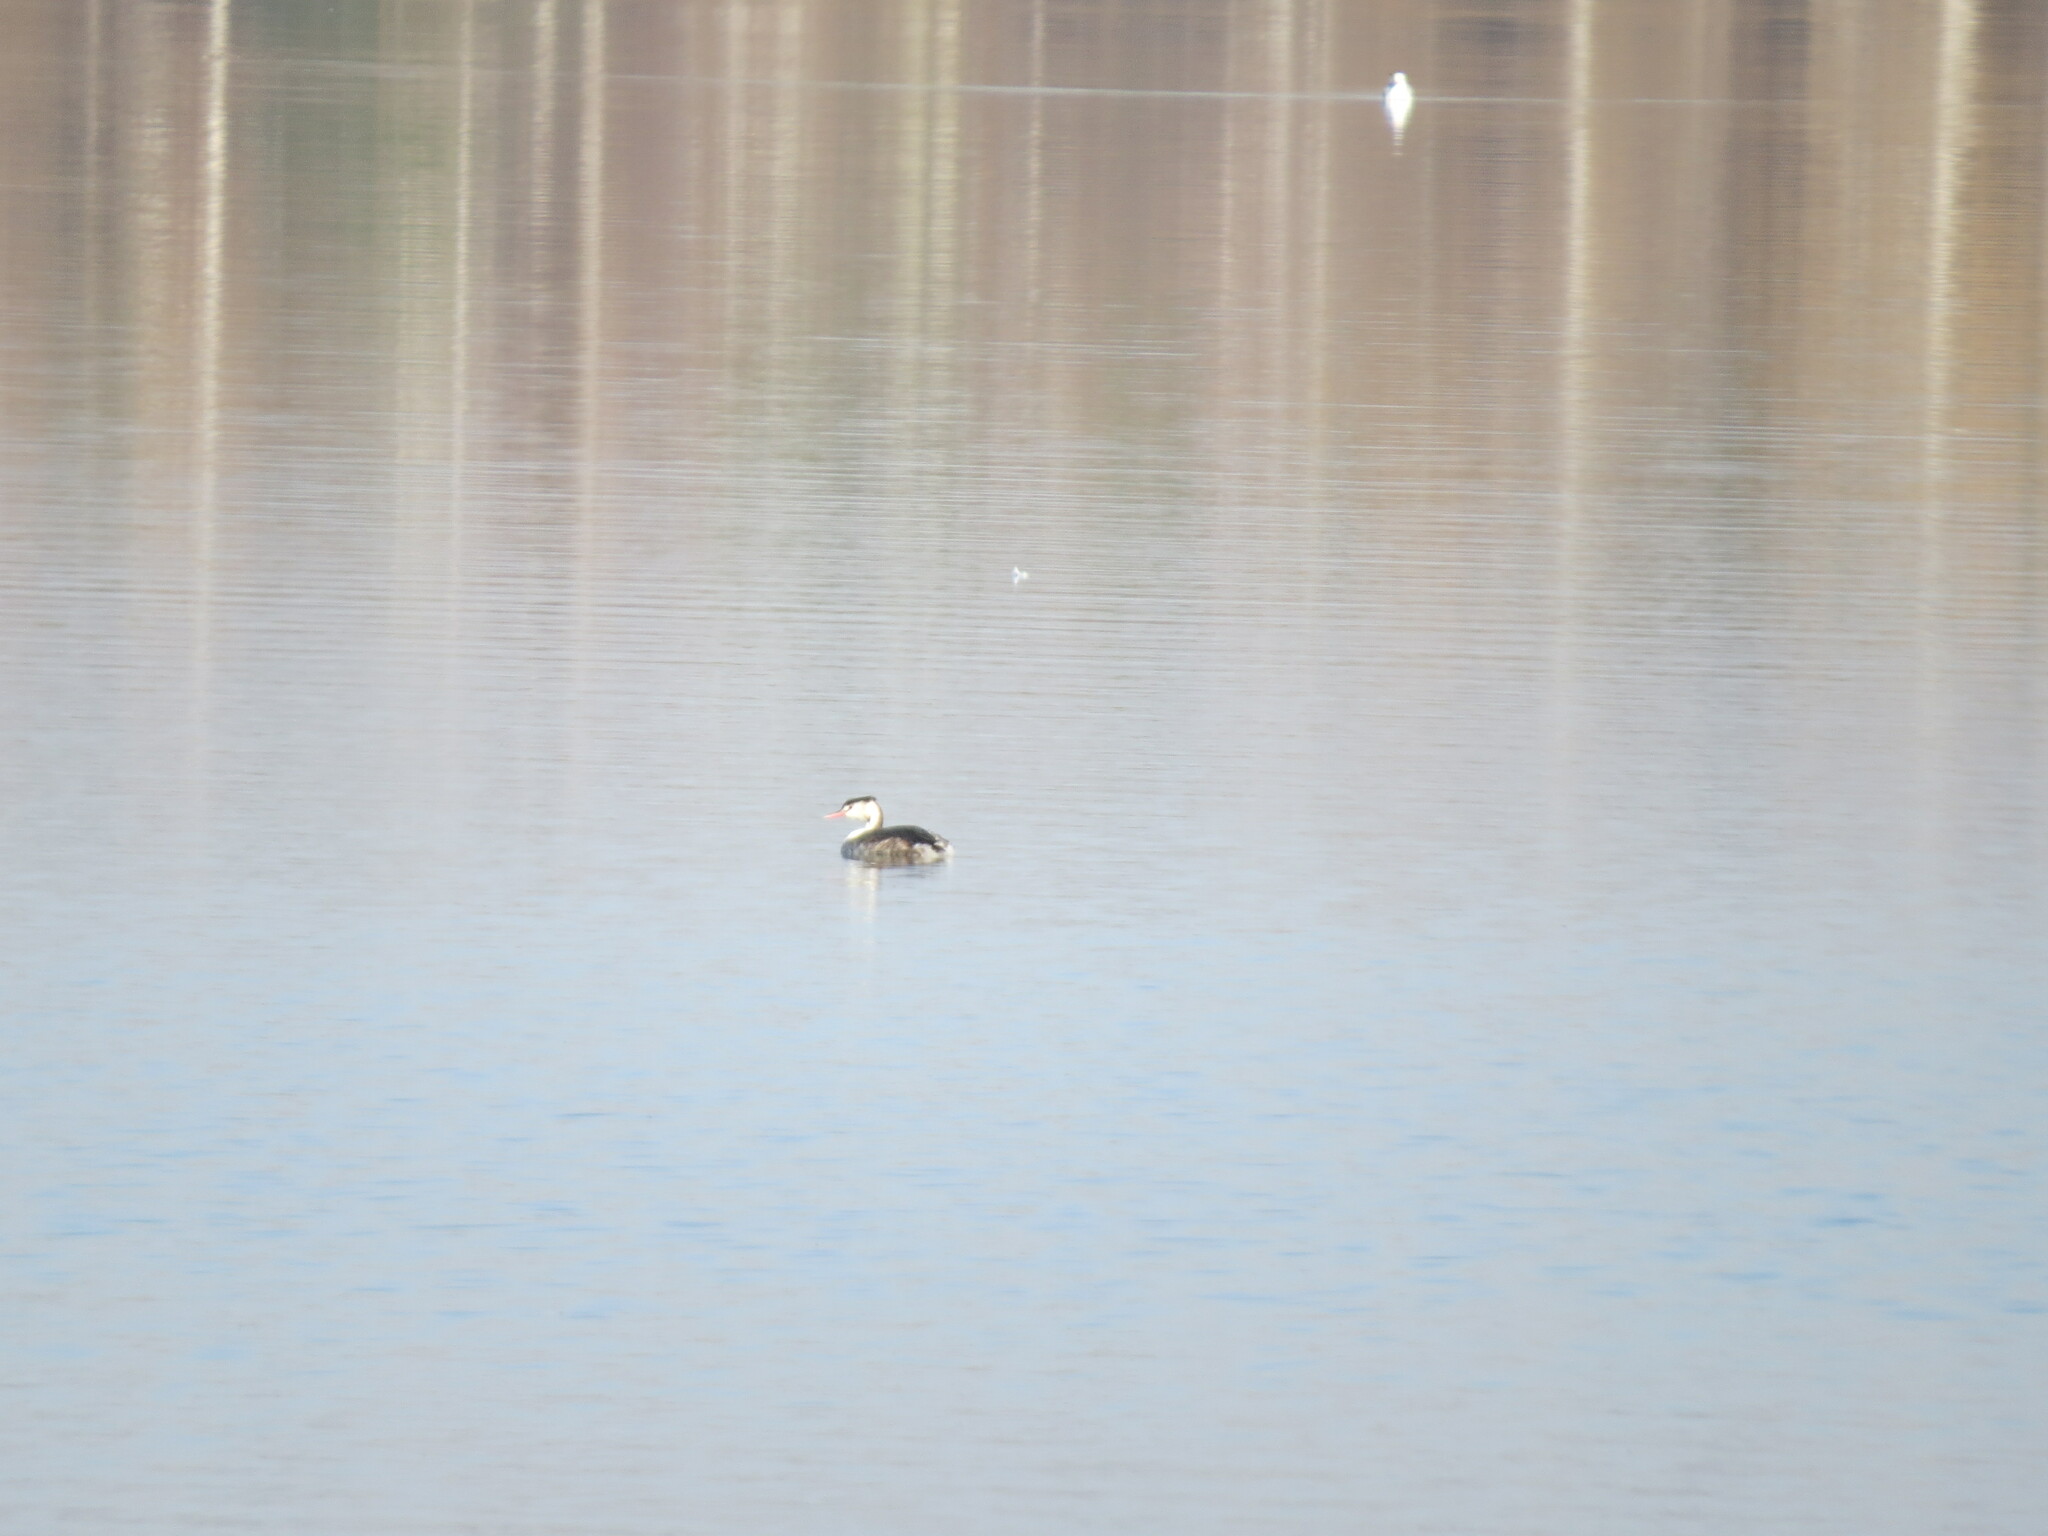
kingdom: Animalia
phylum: Chordata
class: Aves
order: Podicipediformes
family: Podicipedidae
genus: Podiceps
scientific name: Podiceps cristatus
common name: Great crested grebe
